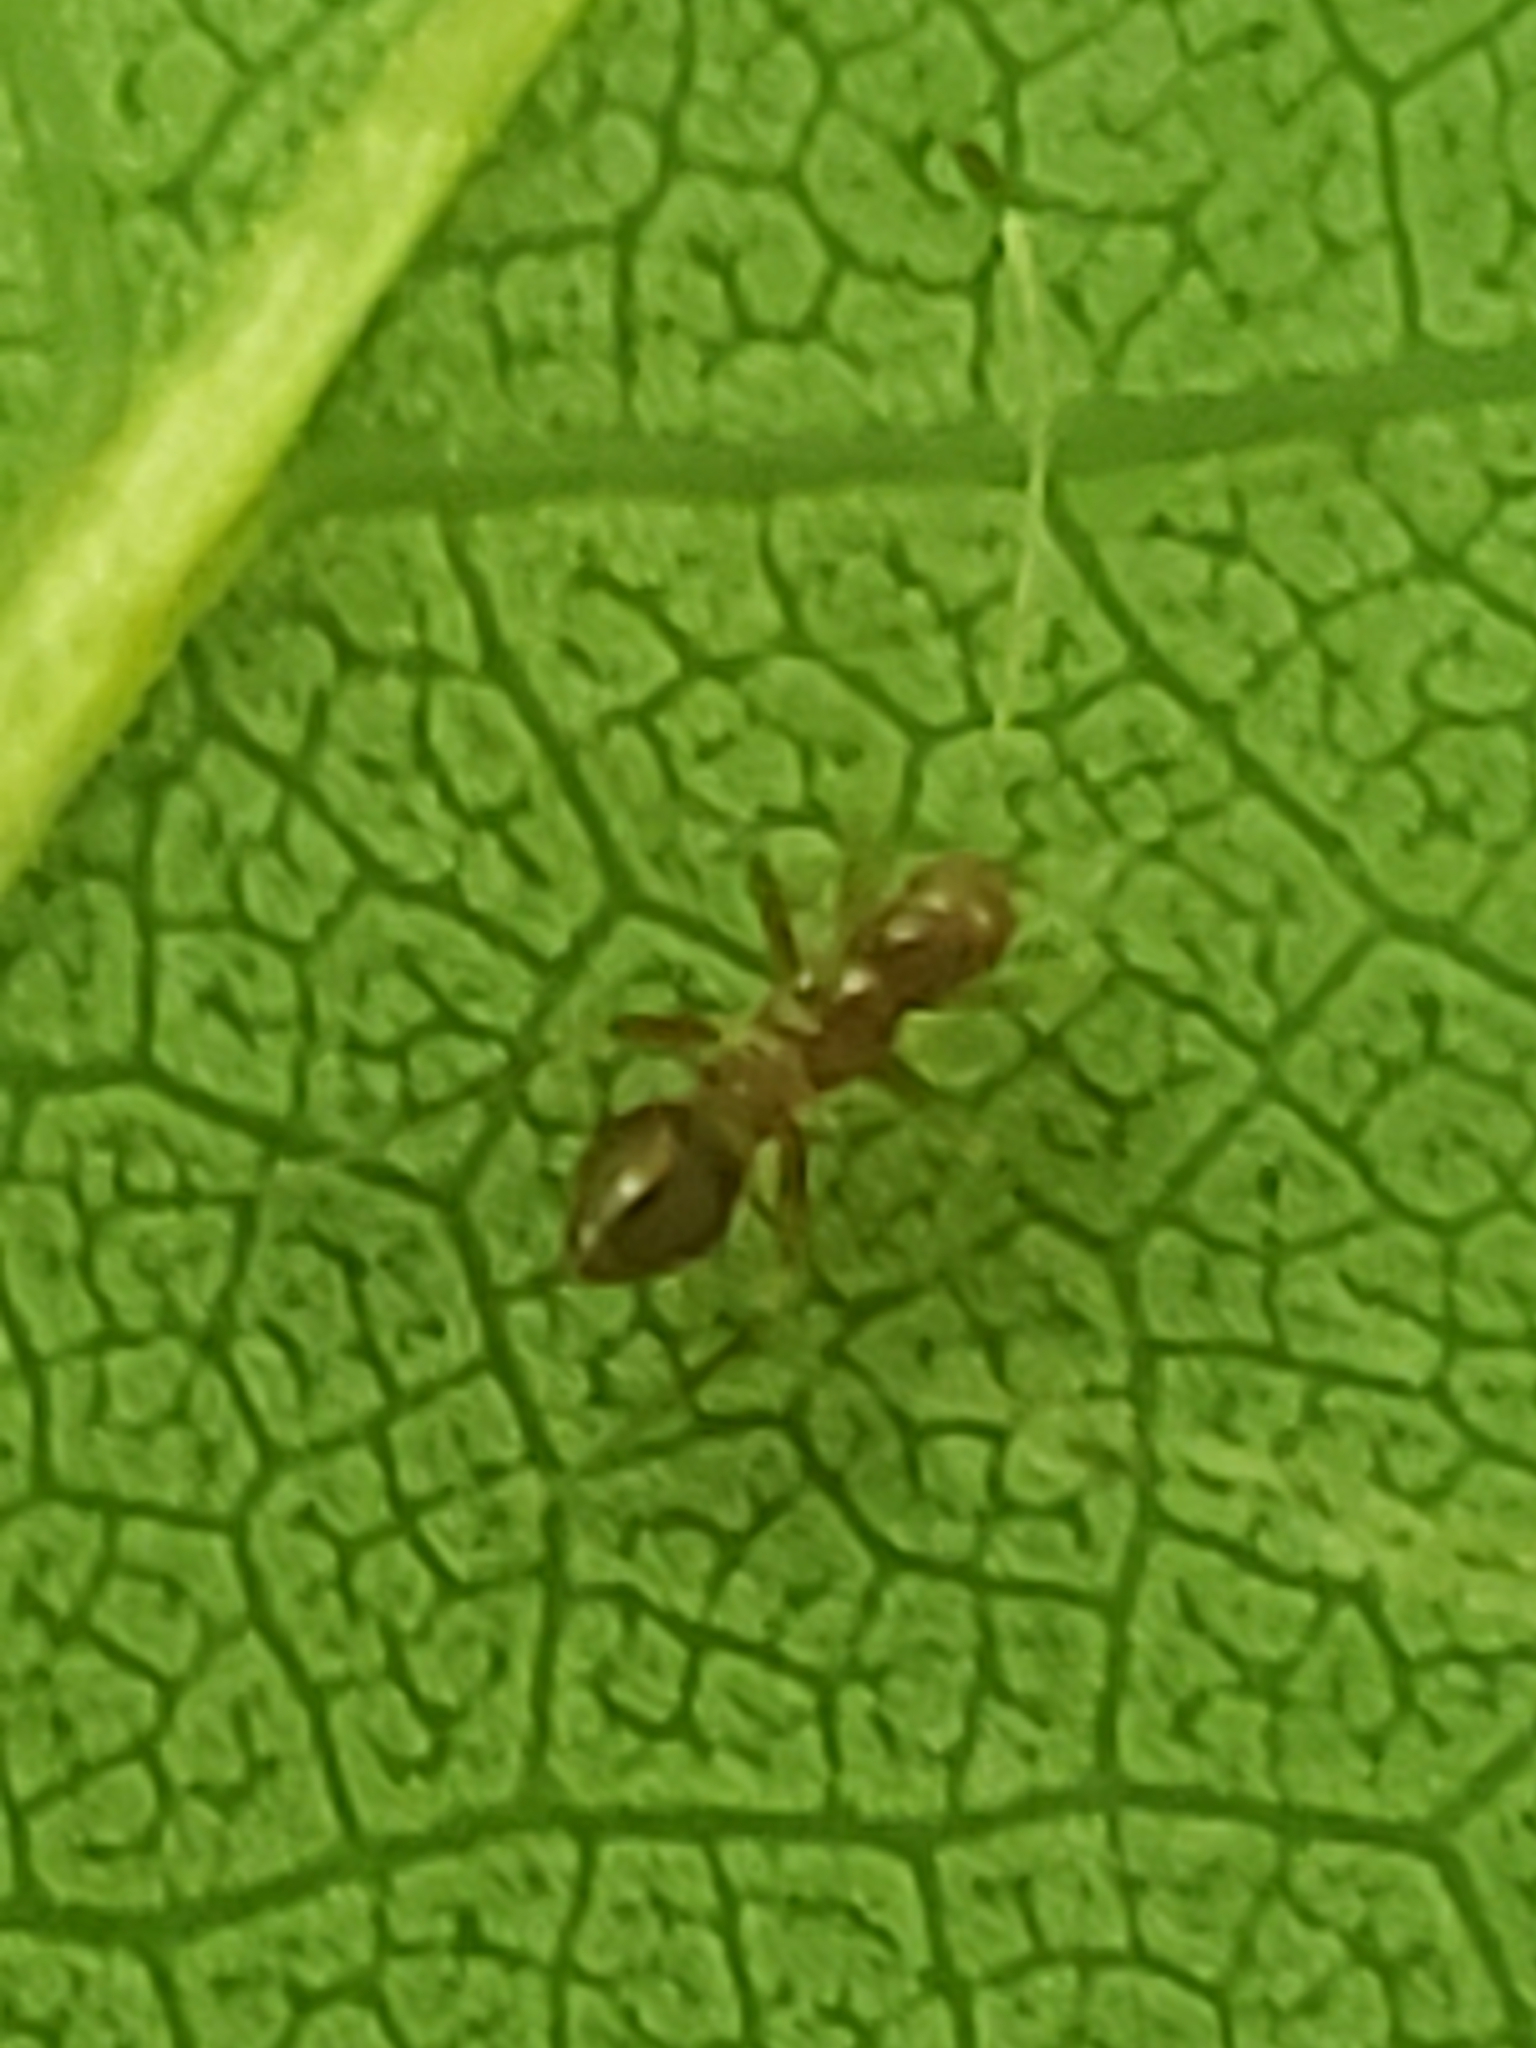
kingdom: Animalia
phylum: Arthropoda
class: Insecta
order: Hemiptera
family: Miridae
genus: Paraxenetus
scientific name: Paraxenetus guttulatus
